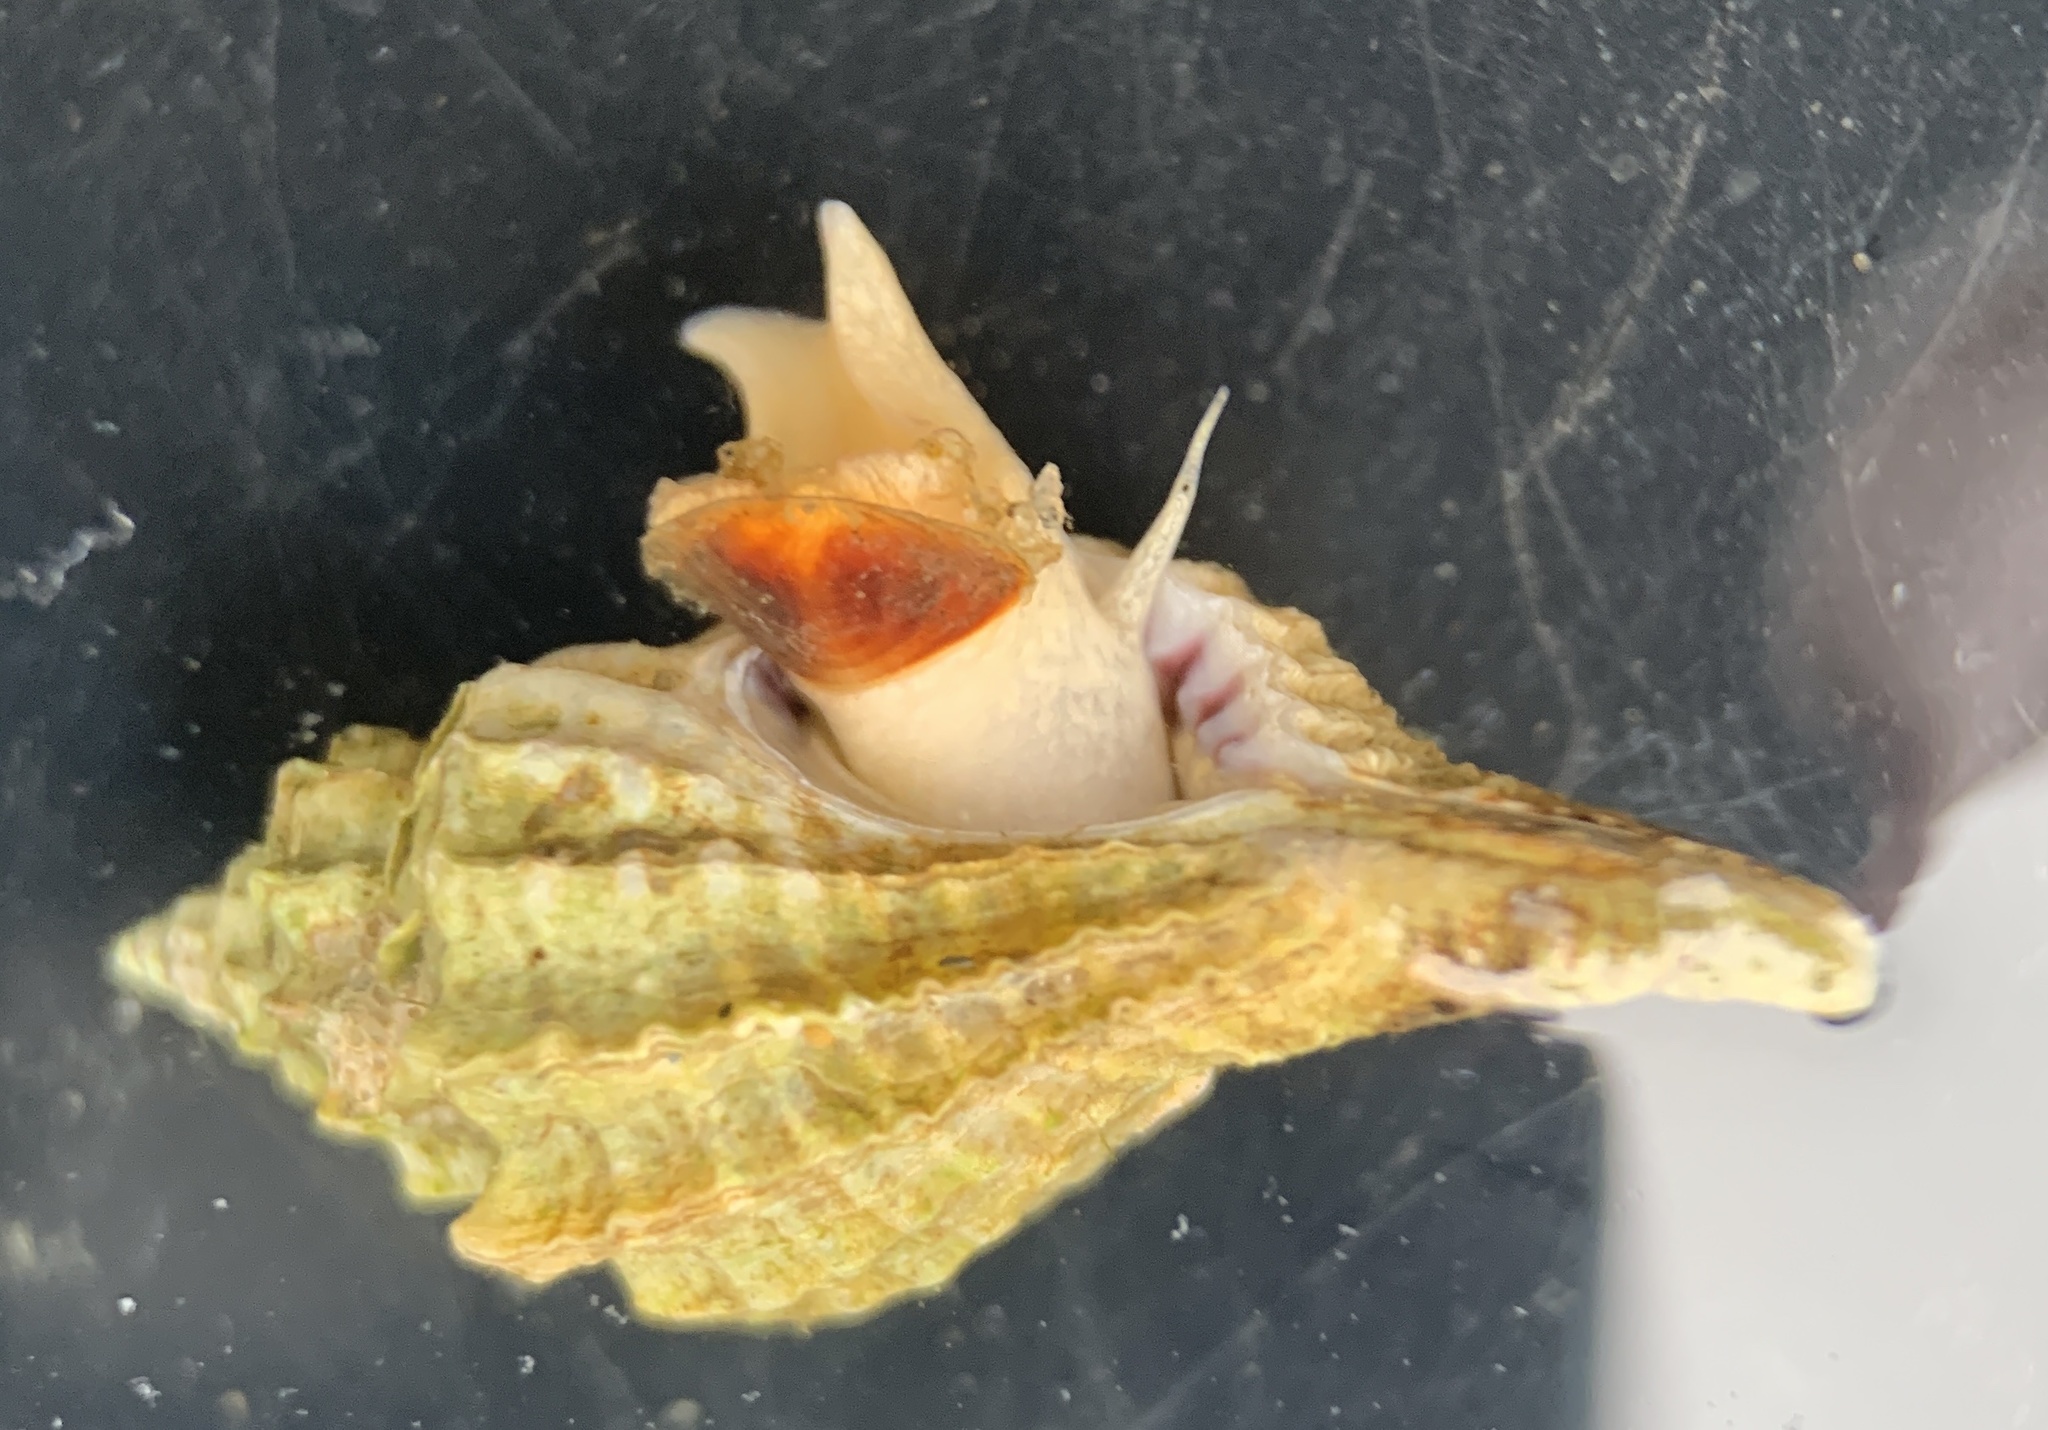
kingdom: Animalia
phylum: Mollusca
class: Gastropoda
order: Neogastropoda
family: Muricidae
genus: Eupleura
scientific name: Eupleura caudata
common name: Thick-lip drill
